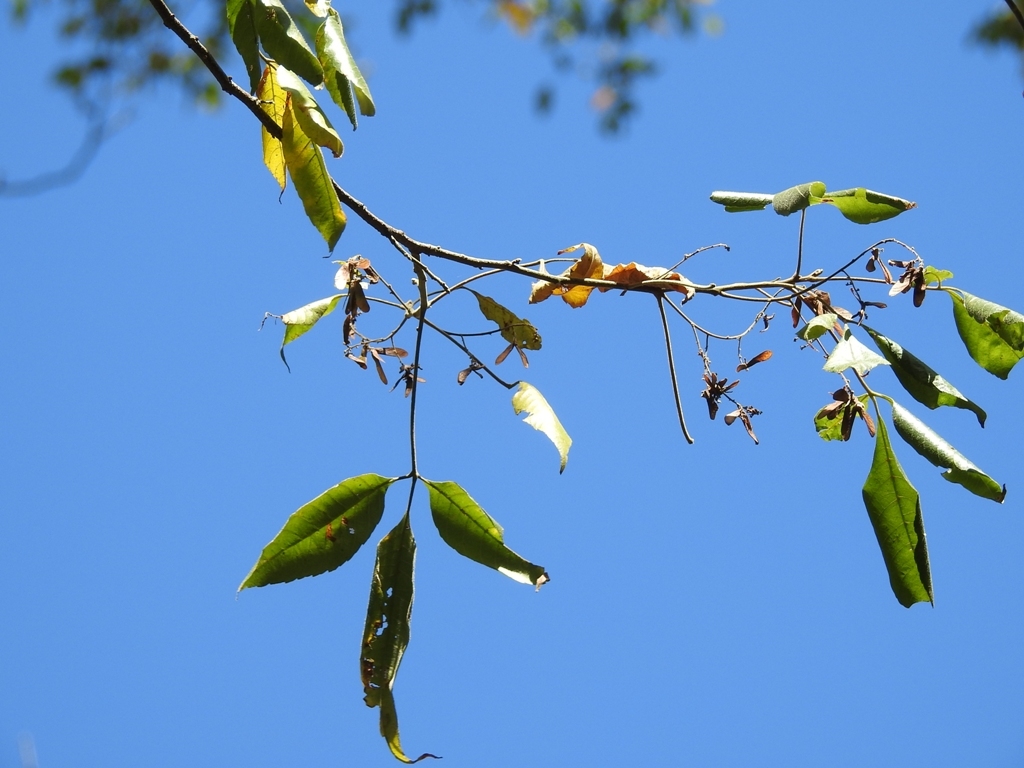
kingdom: Plantae
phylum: Tracheophyta
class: Magnoliopsida
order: Sapindales
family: Sapindaceae
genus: Thouinia
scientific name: Thouinia serrata
